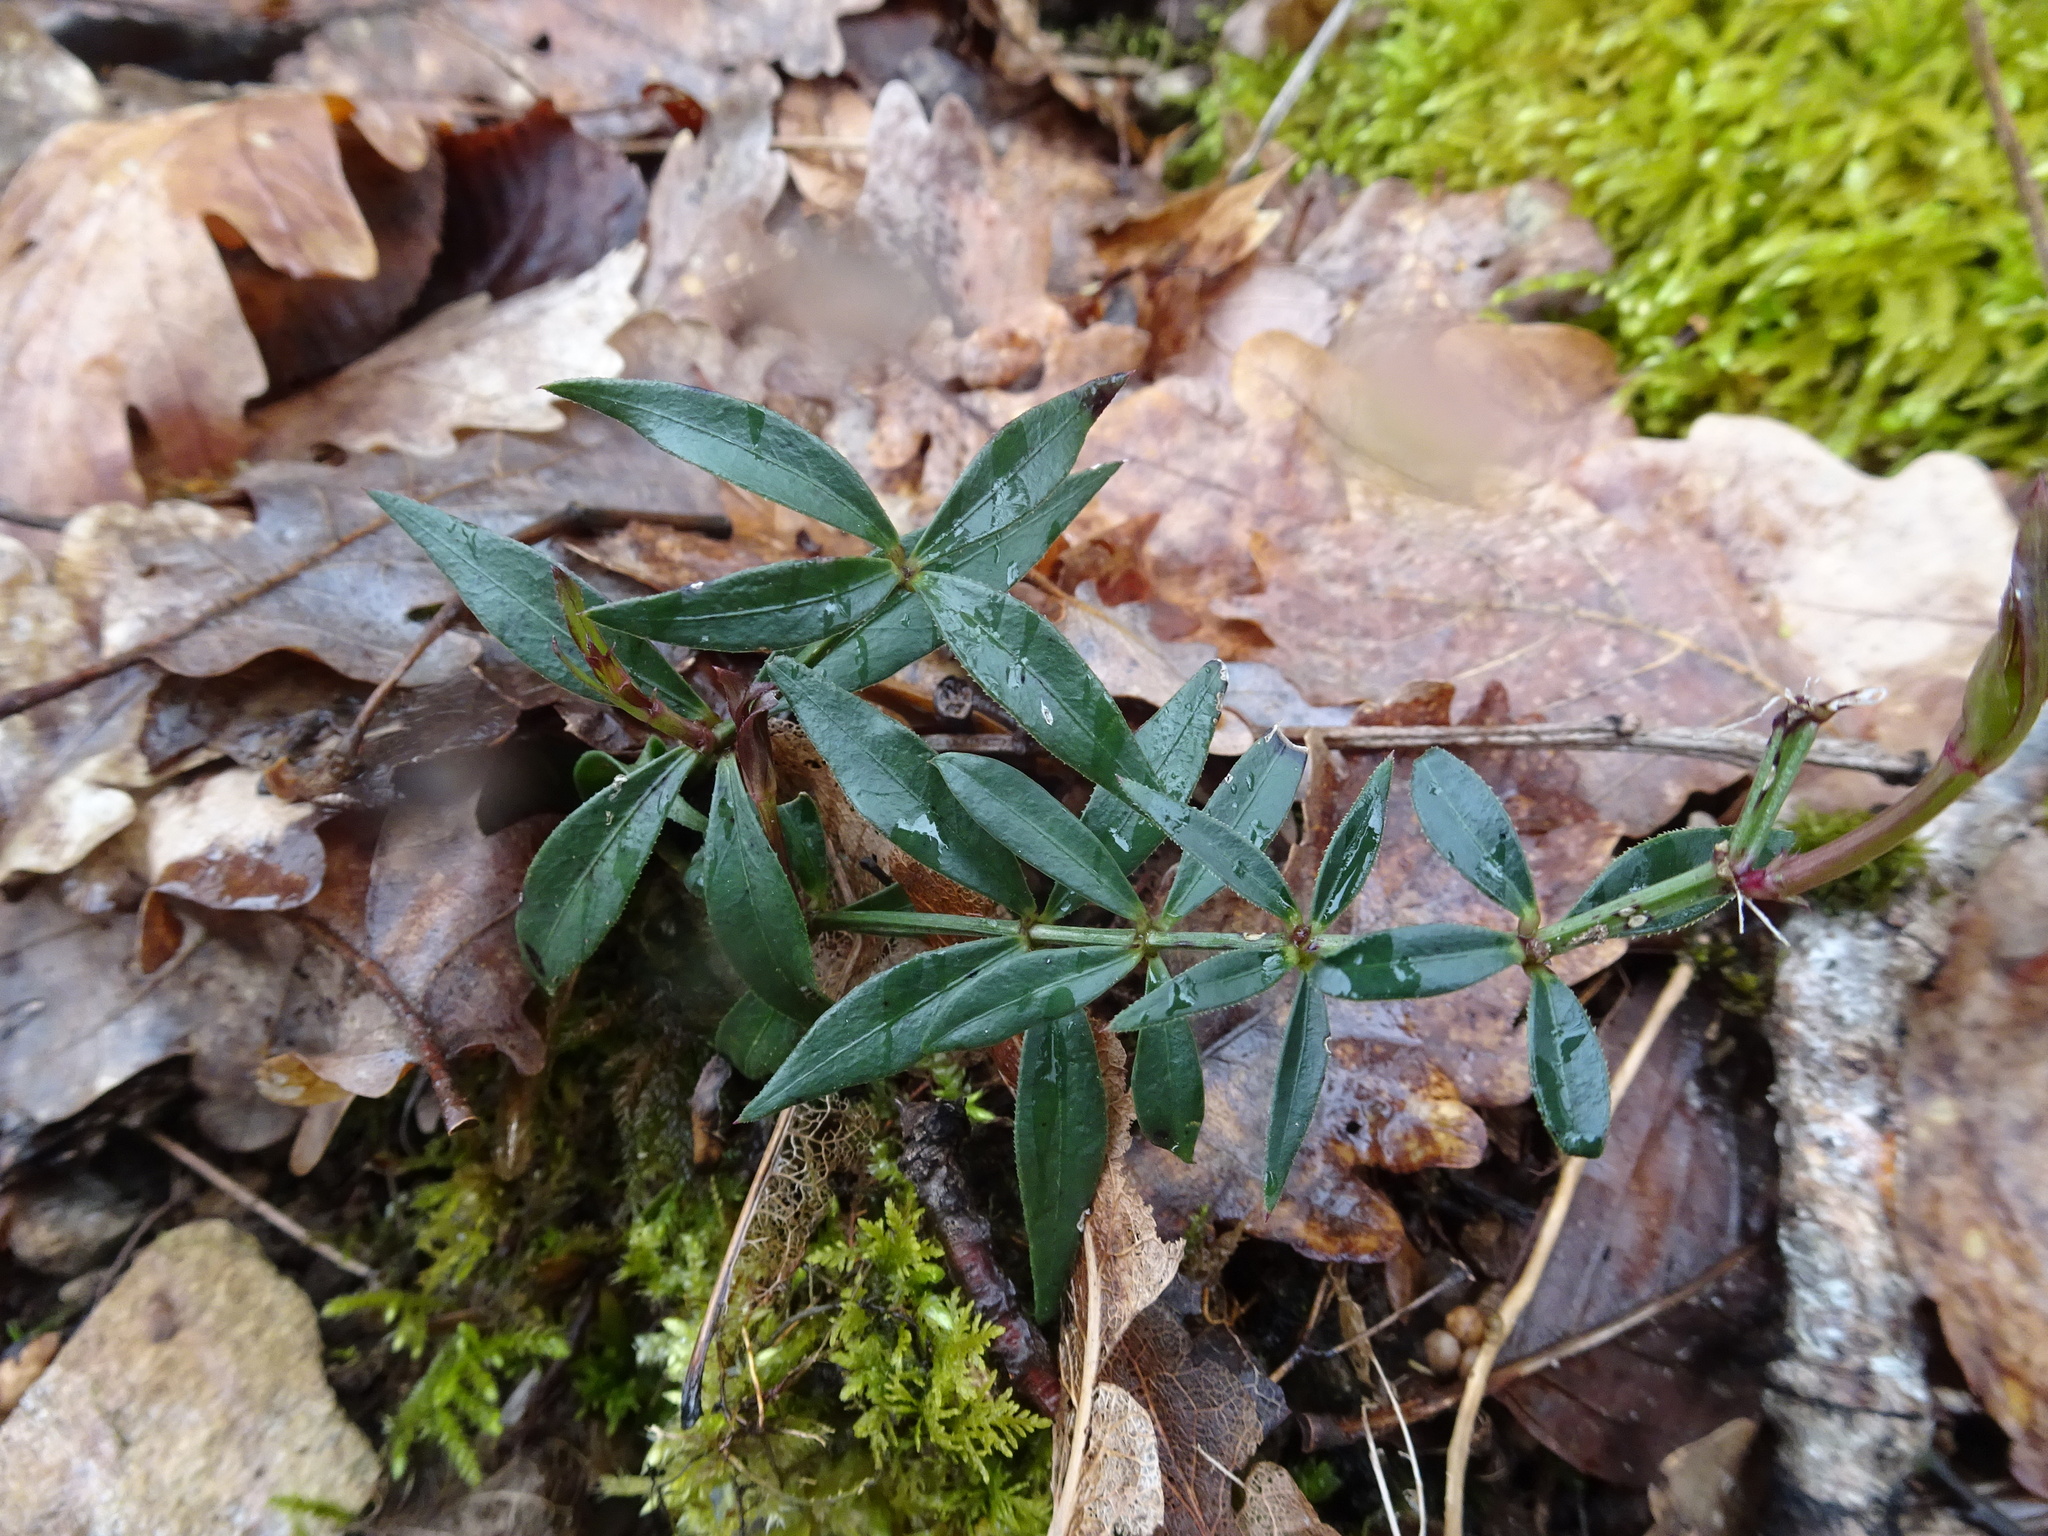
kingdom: Plantae
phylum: Tracheophyta
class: Magnoliopsida
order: Gentianales
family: Rubiaceae
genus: Rubia
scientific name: Rubia peregrina
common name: Wild madder
